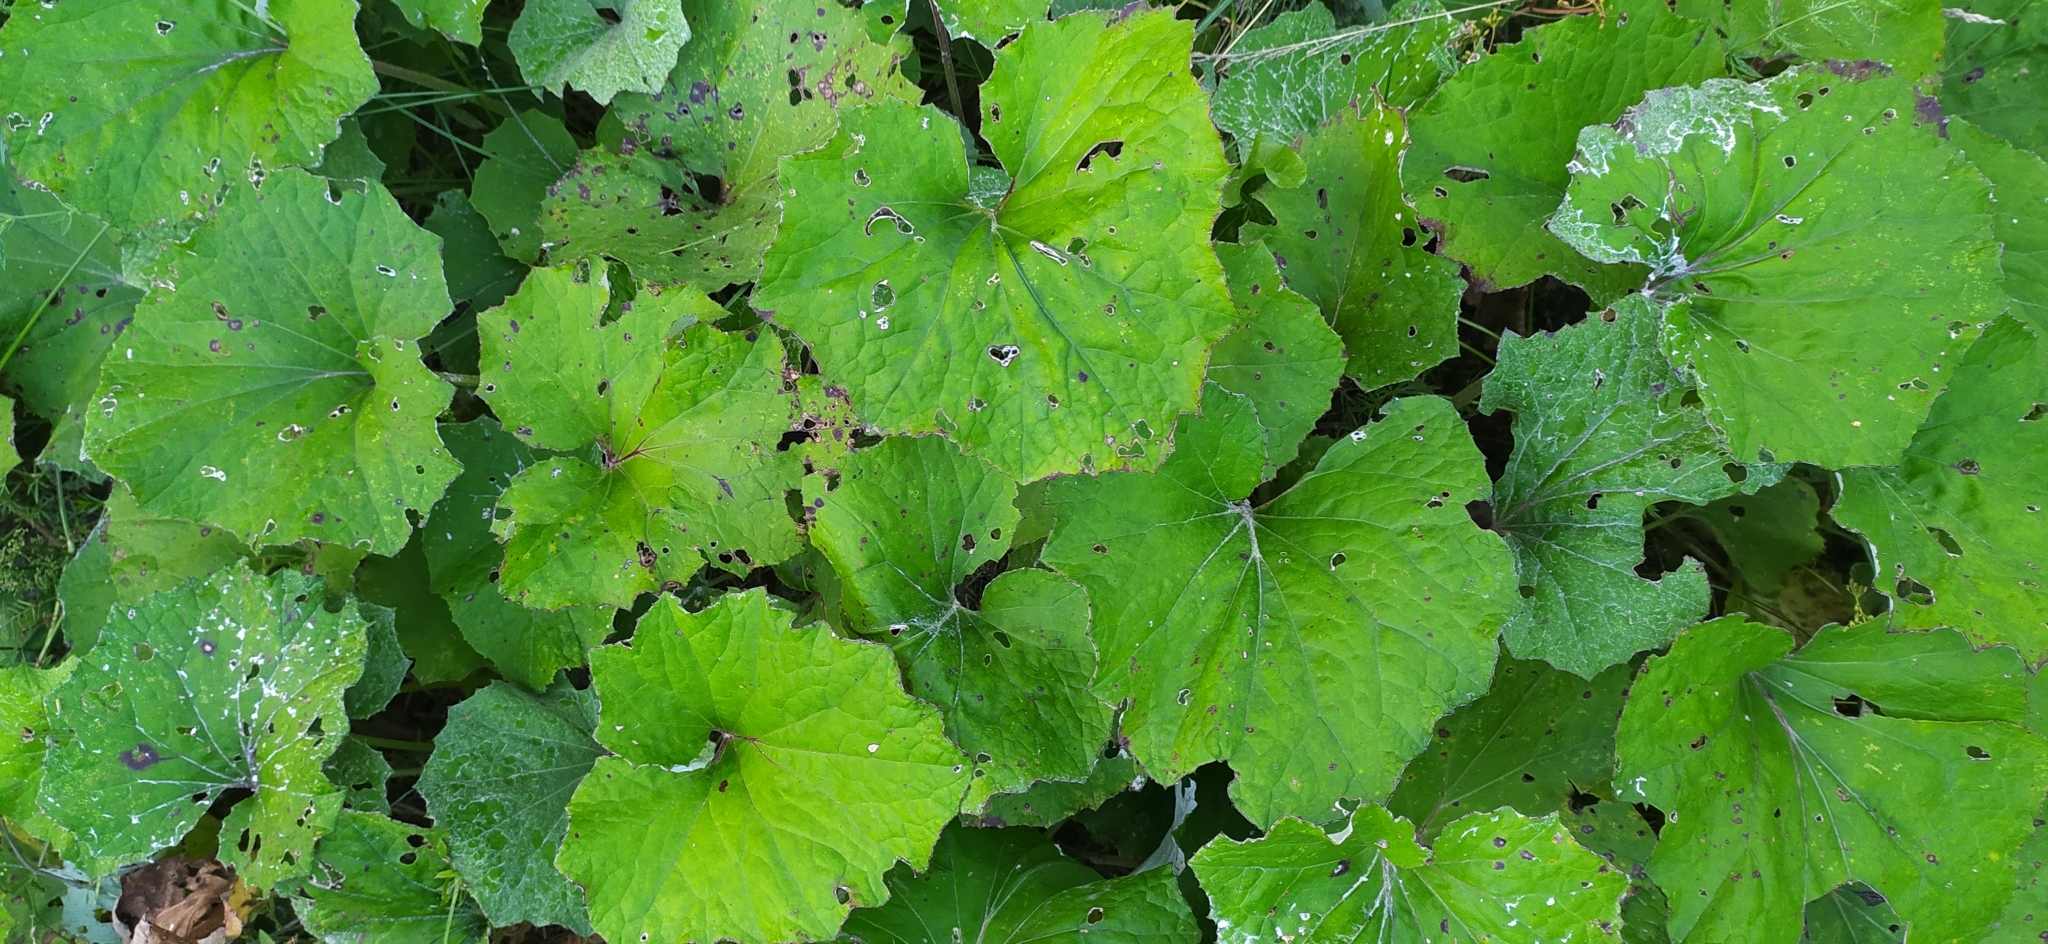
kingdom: Plantae
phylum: Tracheophyta
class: Magnoliopsida
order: Asterales
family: Asteraceae
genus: Tussilago
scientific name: Tussilago farfara
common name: Coltsfoot
